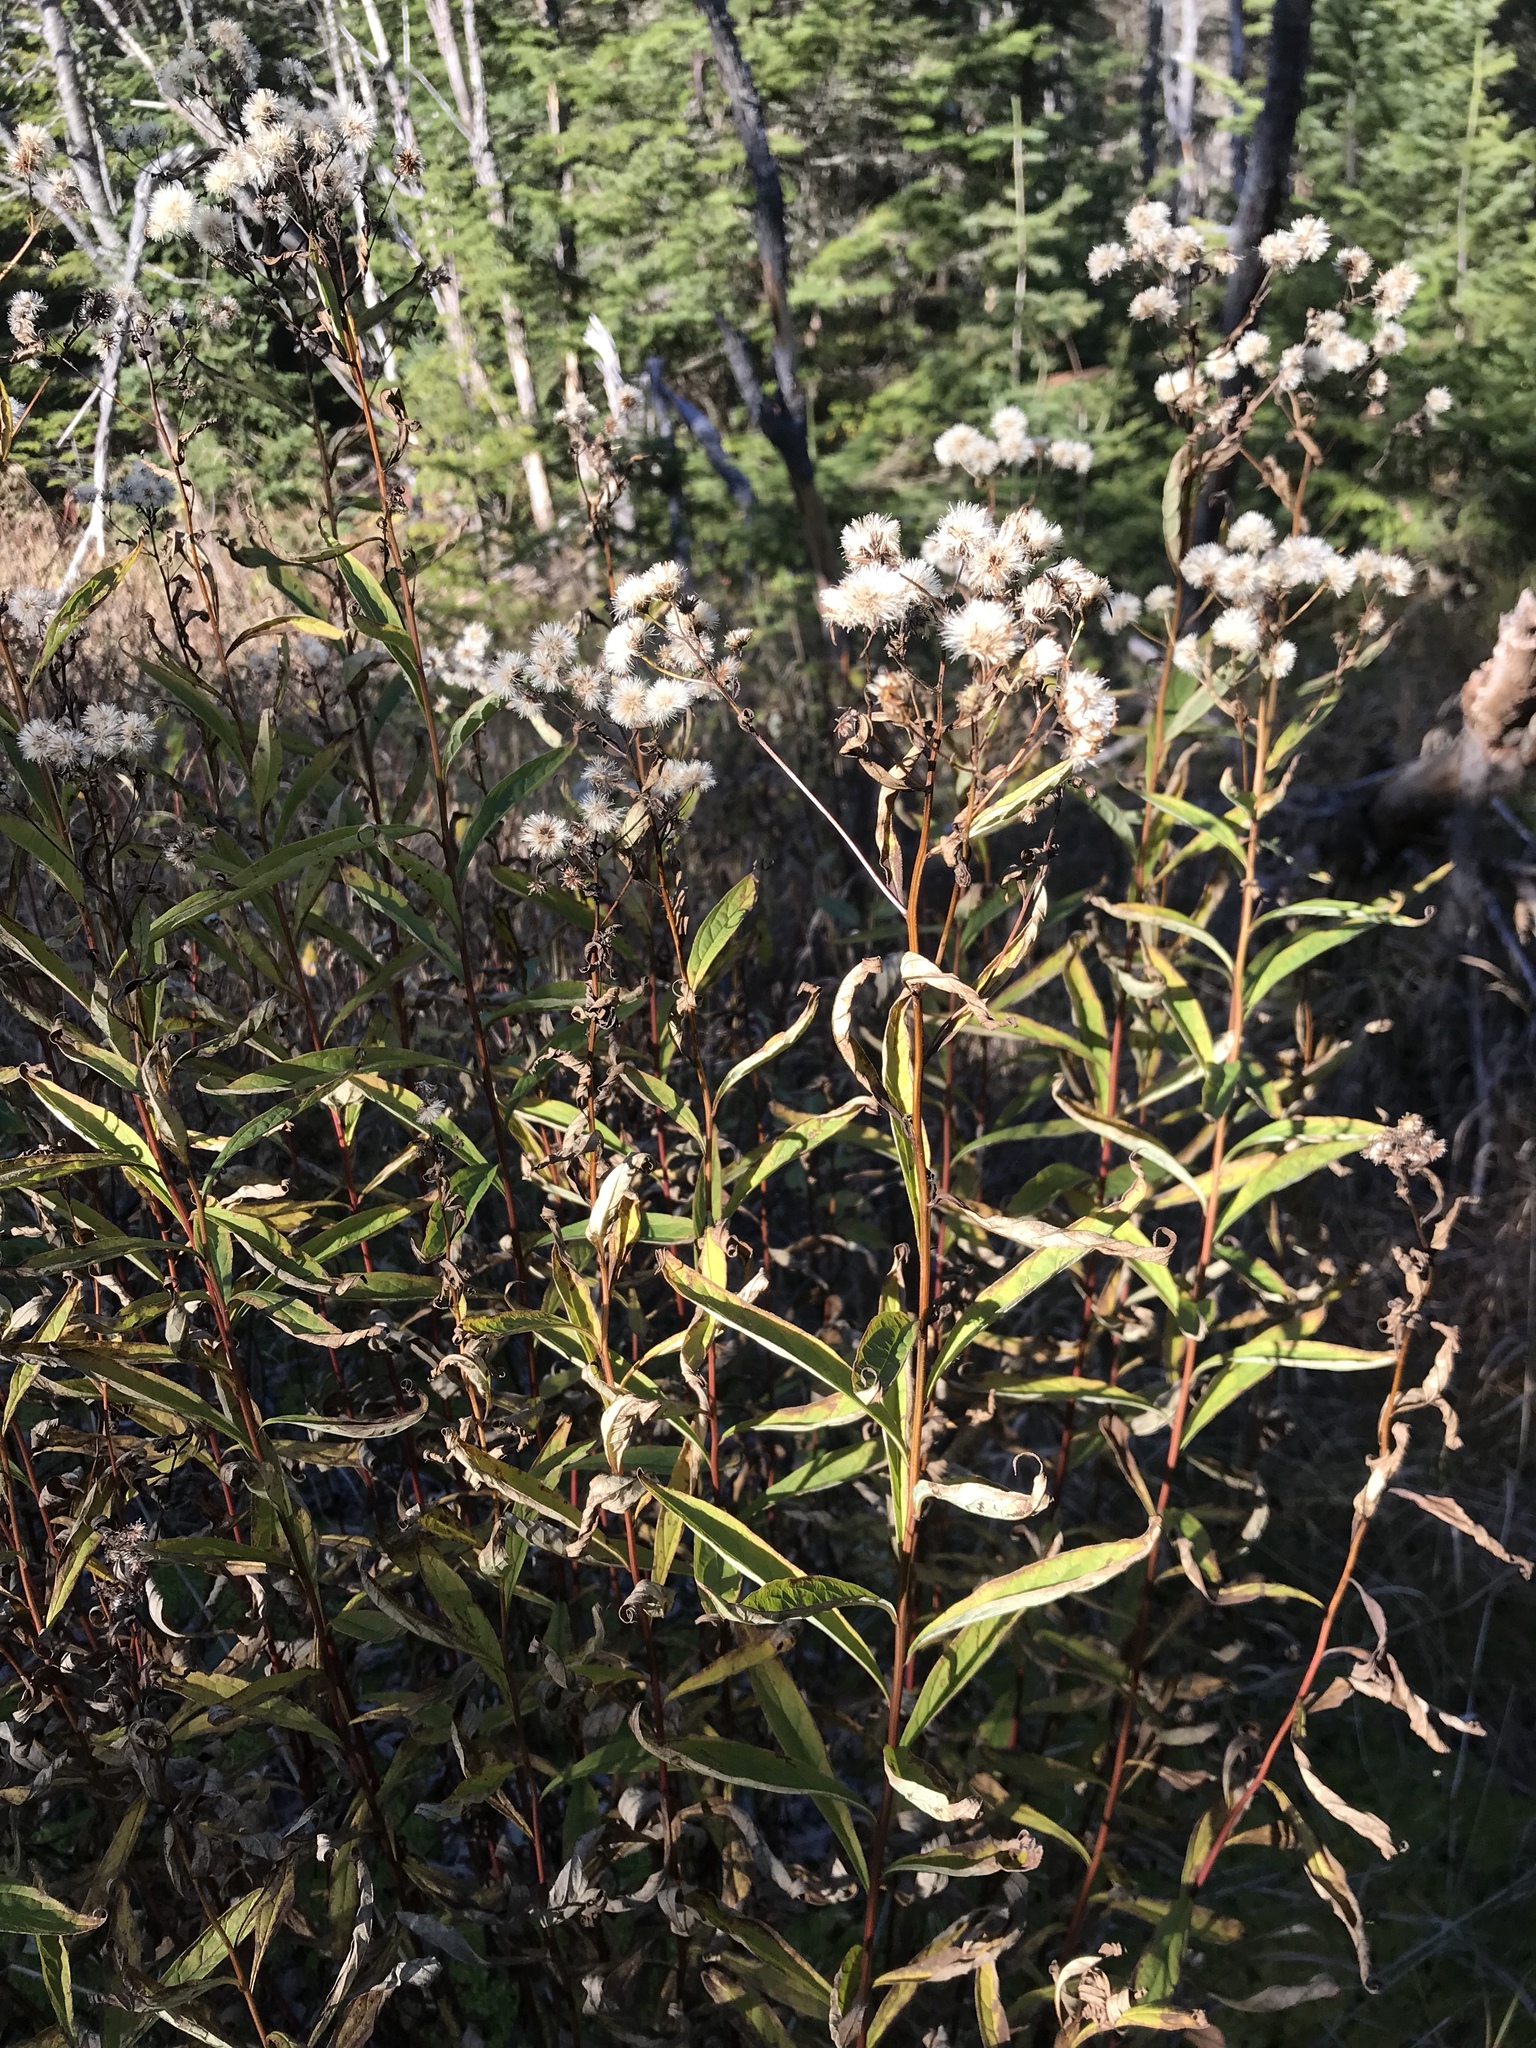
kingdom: Plantae
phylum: Tracheophyta
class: Magnoliopsida
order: Asterales
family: Asteraceae
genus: Anaphalis
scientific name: Anaphalis margaritacea
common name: Pearly everlasting
